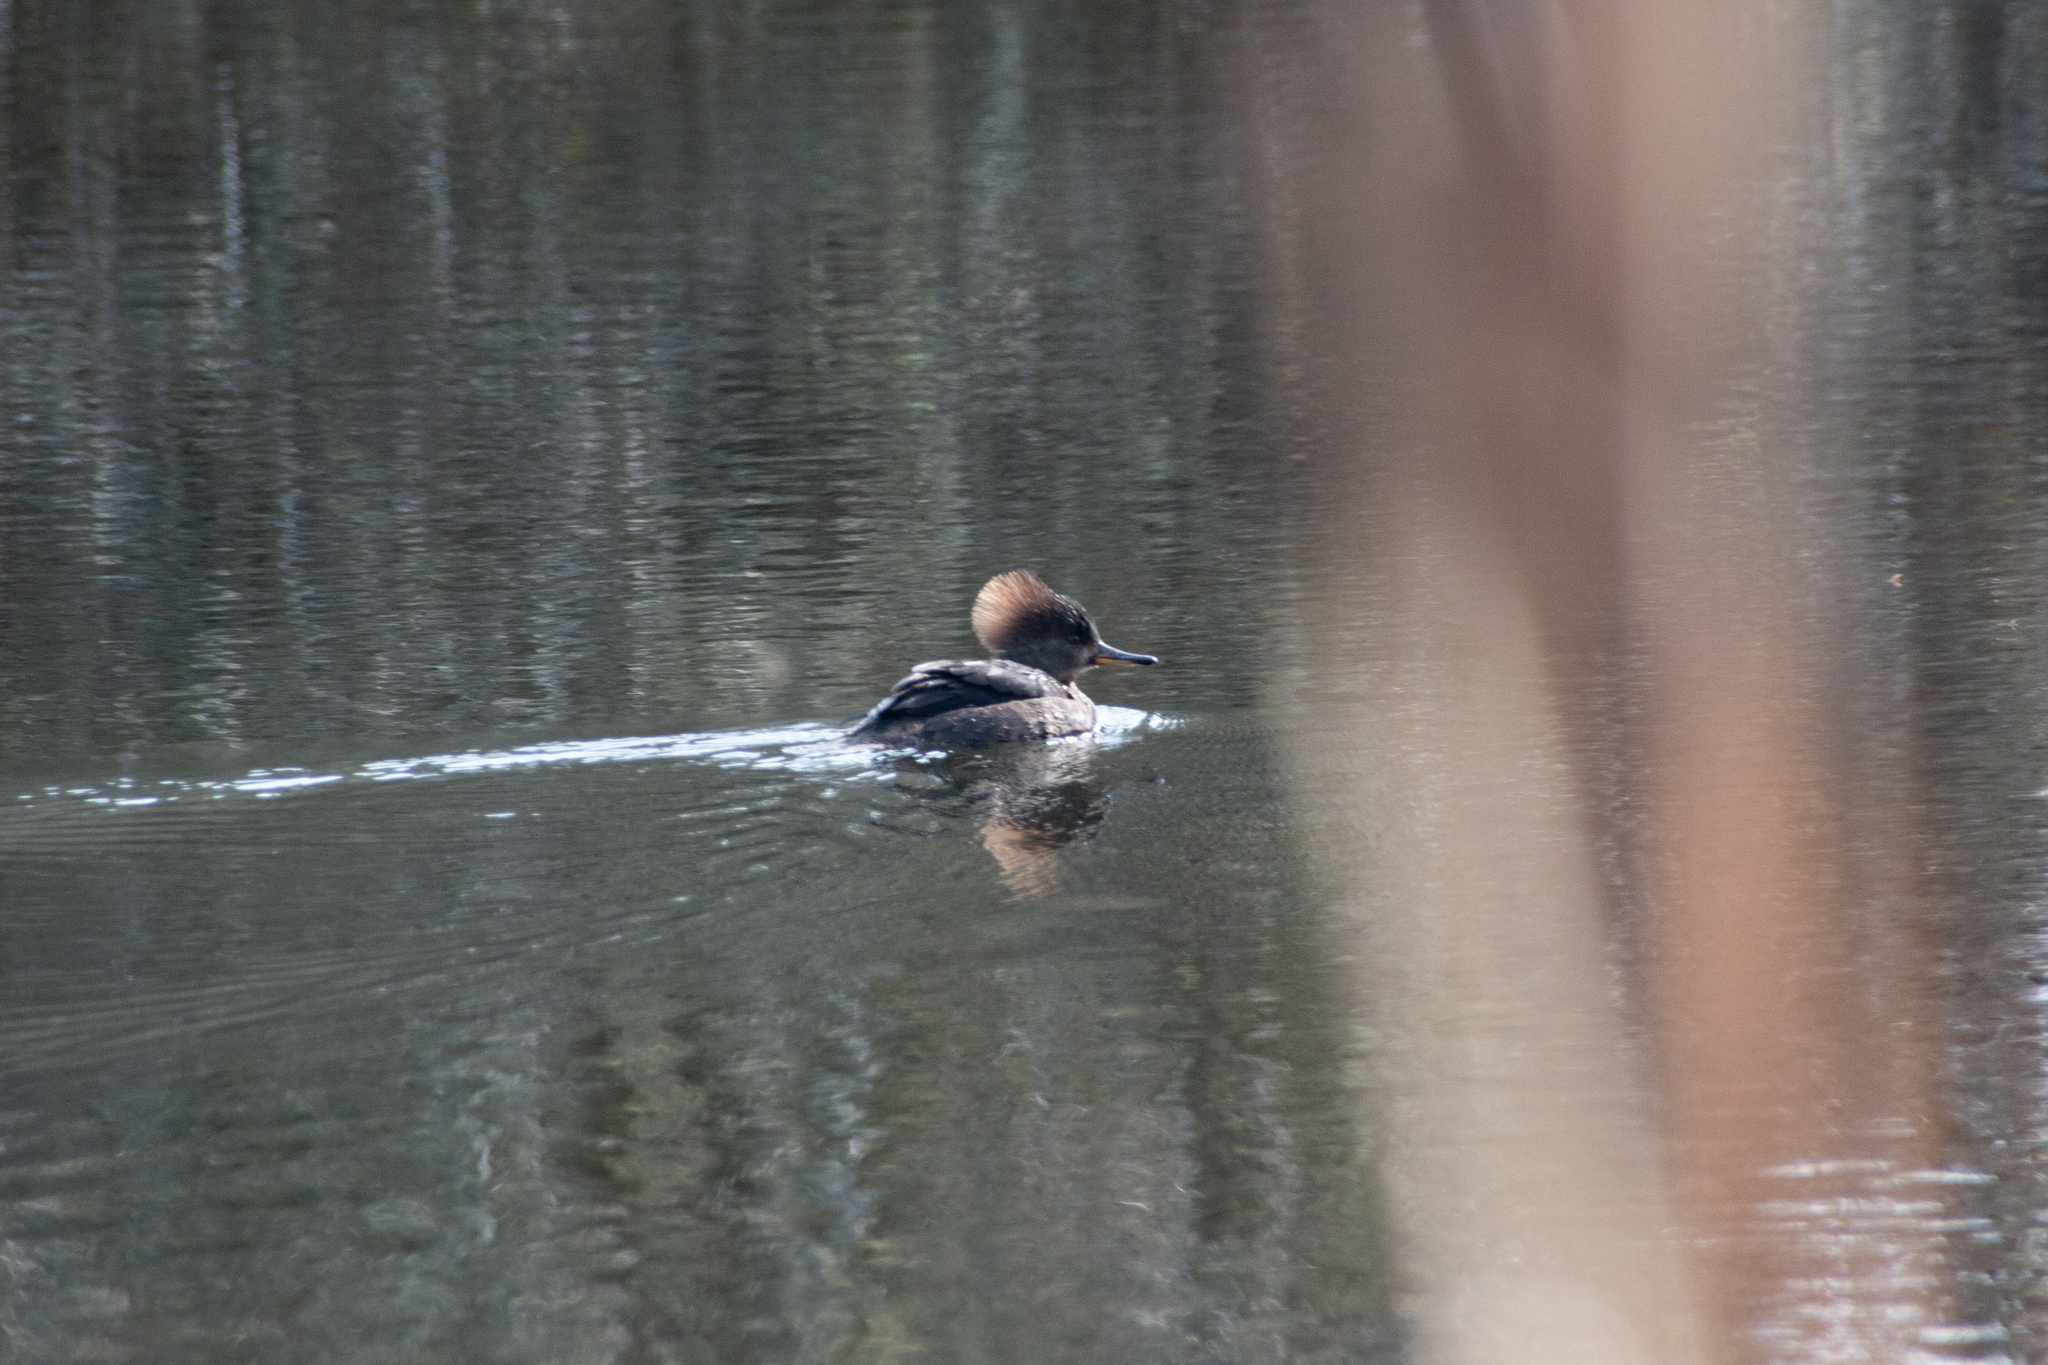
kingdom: Animalia
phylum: Chordata
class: Aves
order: Anseriformes
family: Anatidae
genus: Lophodytes
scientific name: Lophodytes cucullatus
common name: Hooded merganser
